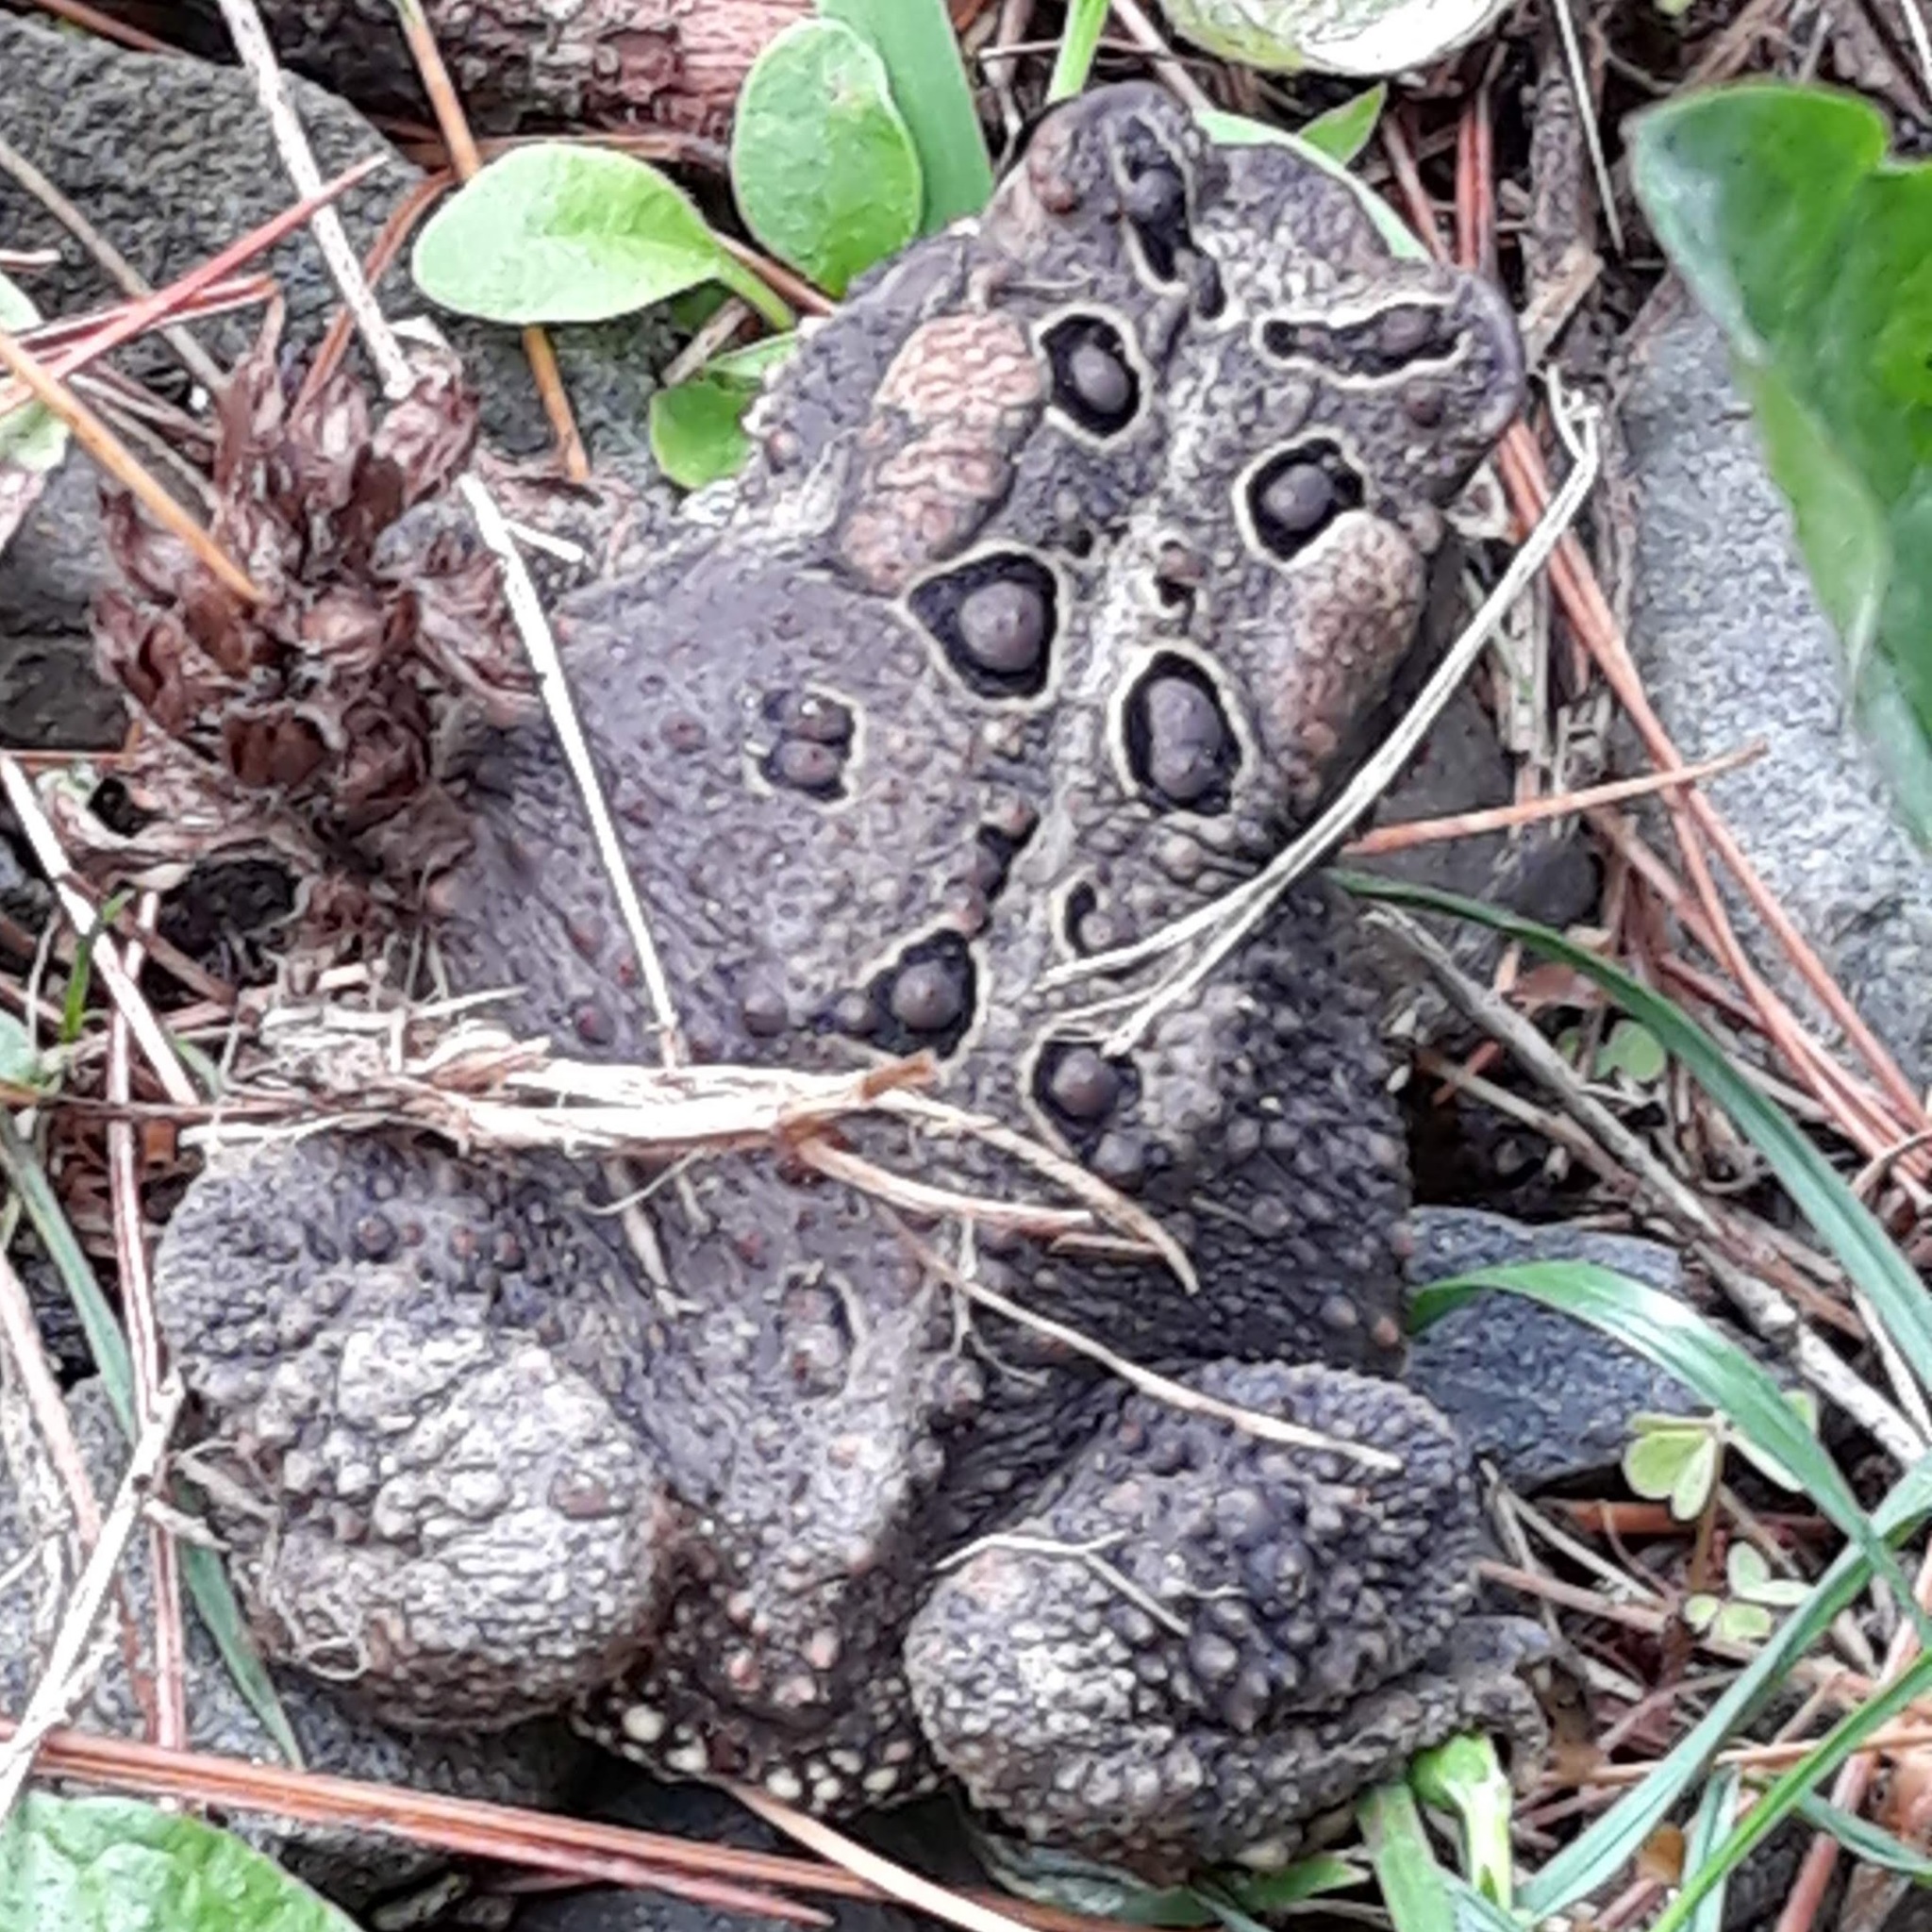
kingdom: Animalia
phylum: Chordata
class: Amphibia
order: Anura
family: Bufonidae
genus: Anaxyrus
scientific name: Anaxyrus americanus
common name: American toad
